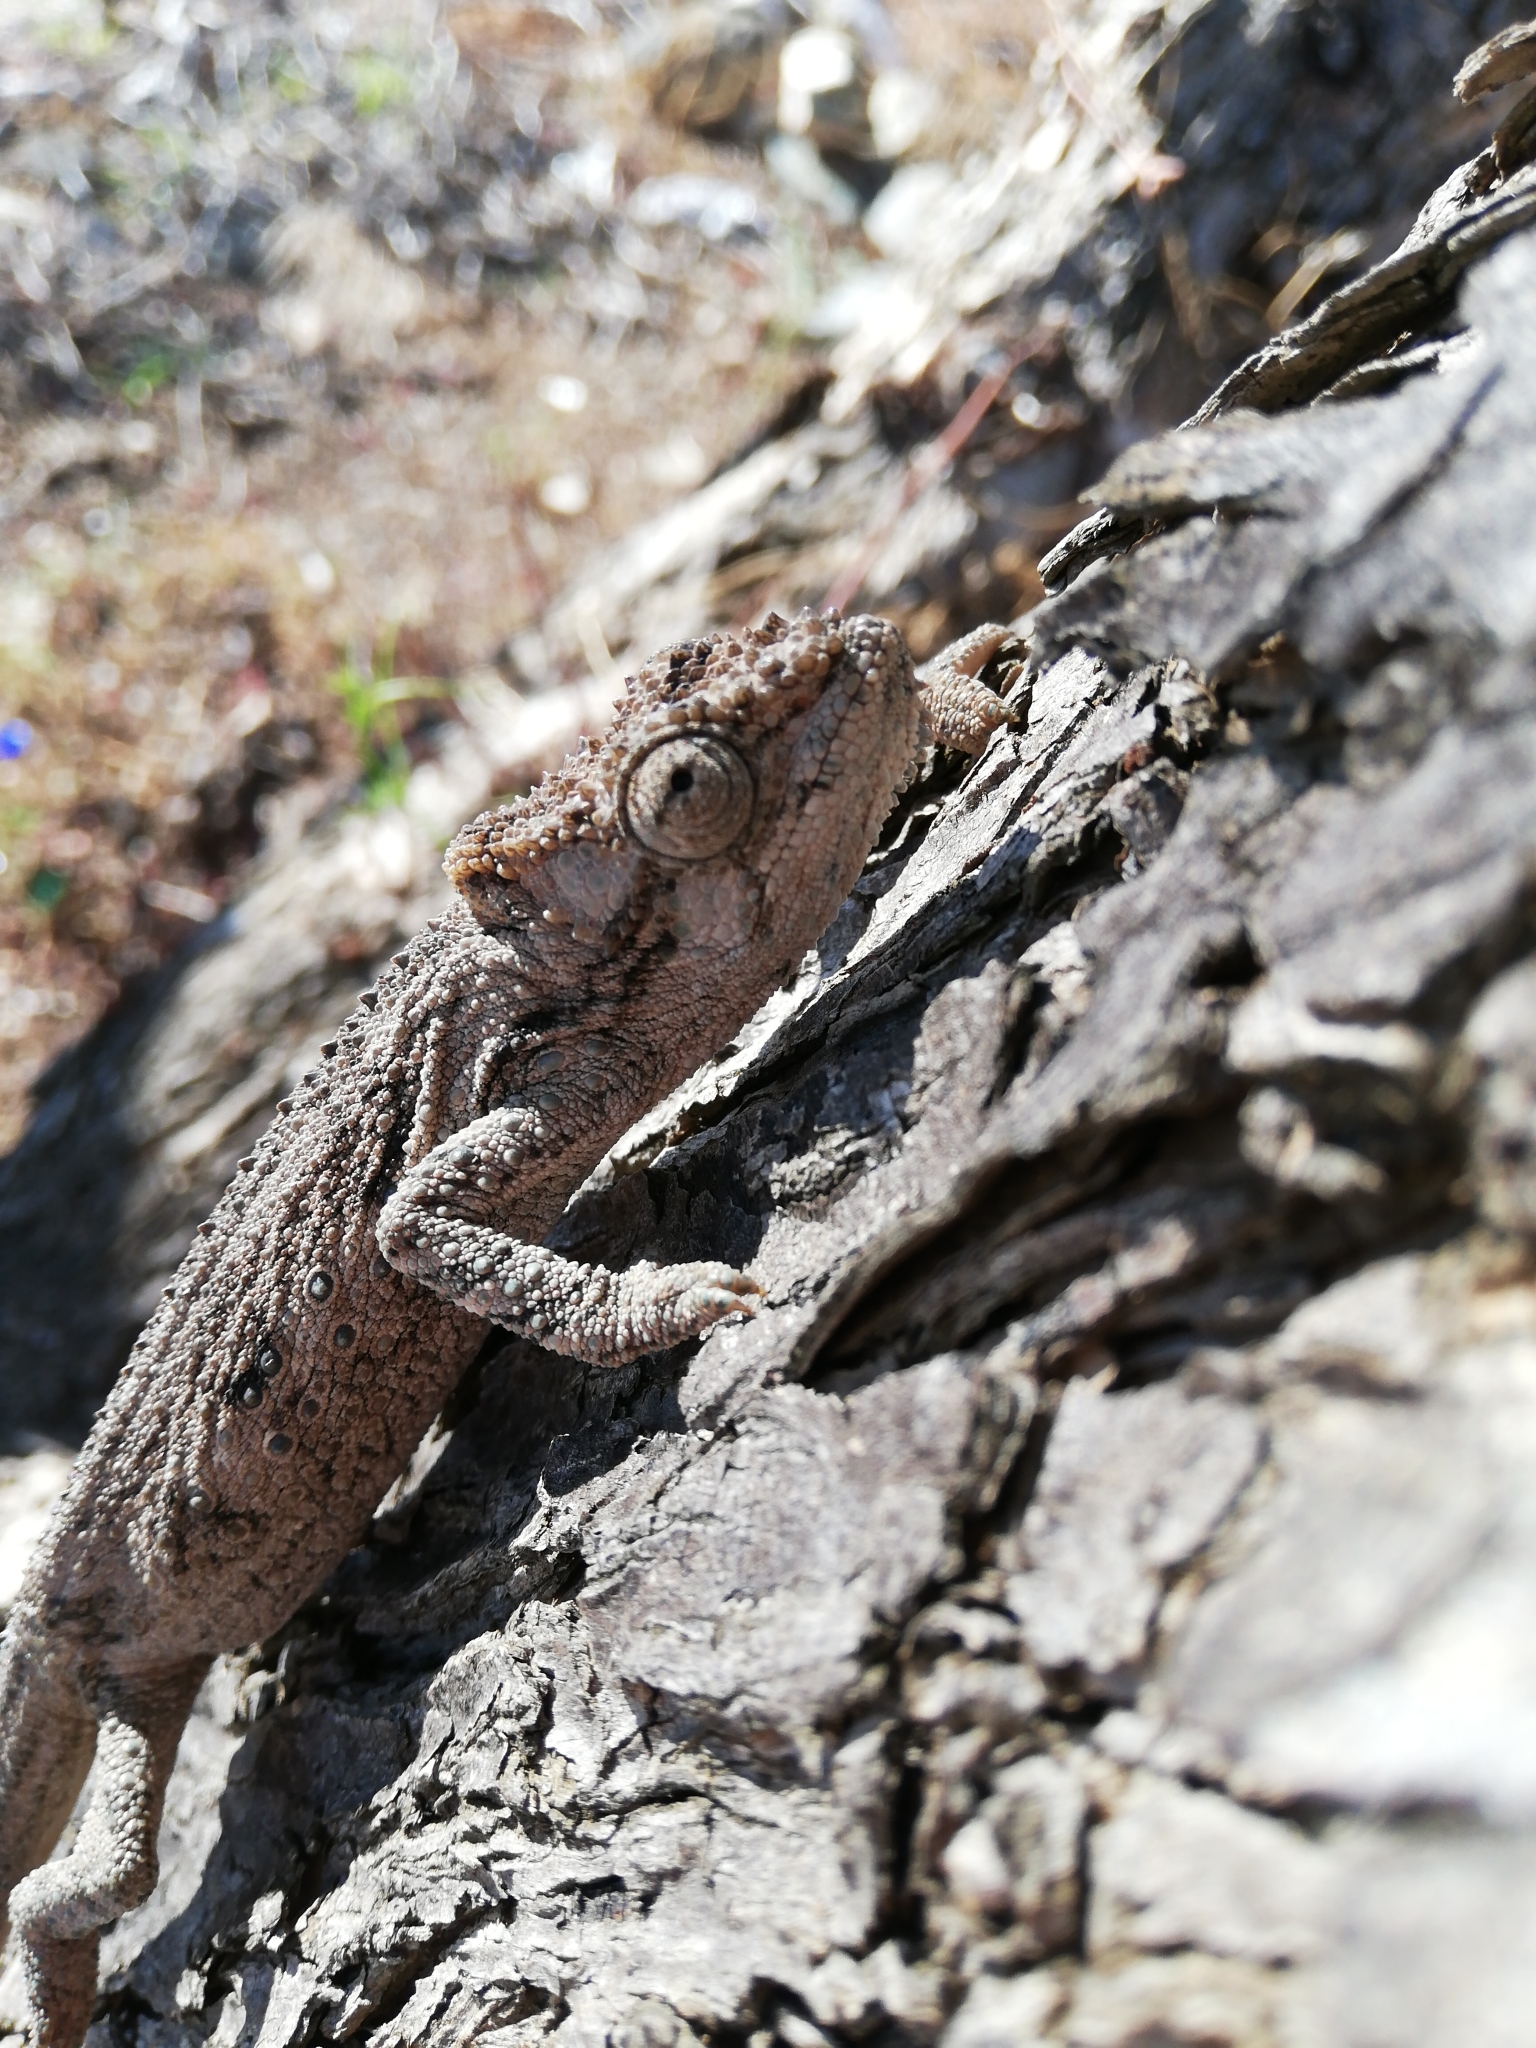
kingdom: Animalia
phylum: Chordata
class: Squamata
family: Chamaeleonidae
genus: Bradypodion
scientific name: Bradypodion ventrale
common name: Eastern cape dwarf chameleon
